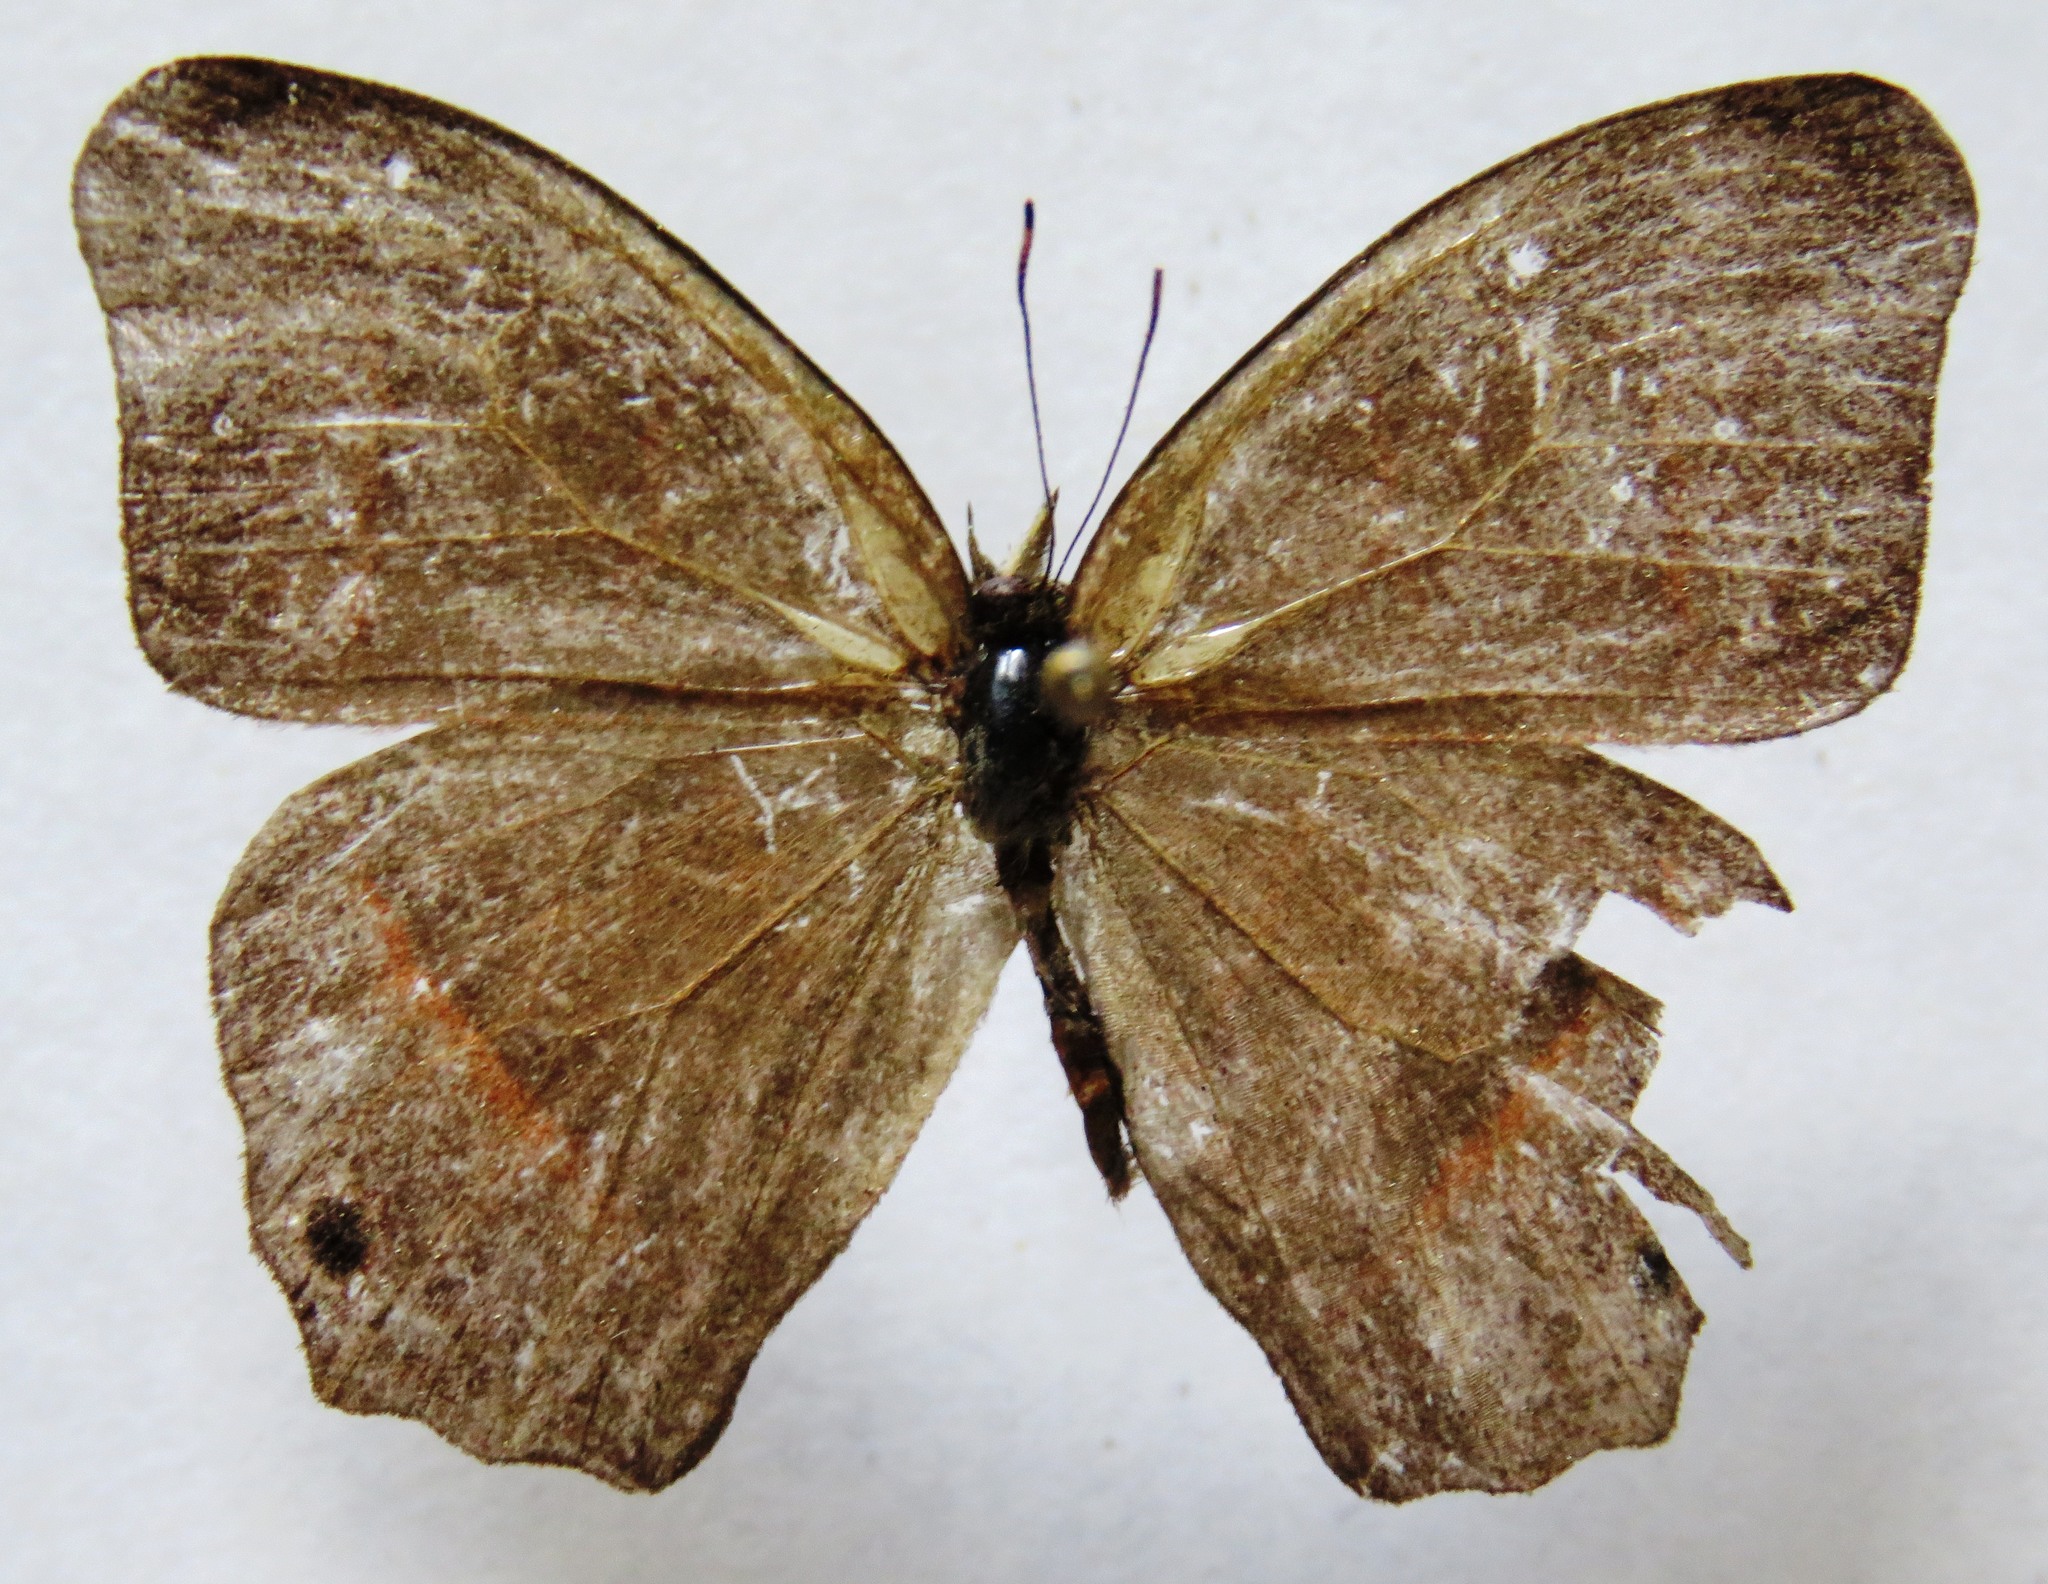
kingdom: Animalia
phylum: Arthropoda
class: Insecta
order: Lepidoptera
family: Nymphalidae
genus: Euptychia
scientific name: Euptychia Cyllopsis hedemanni
